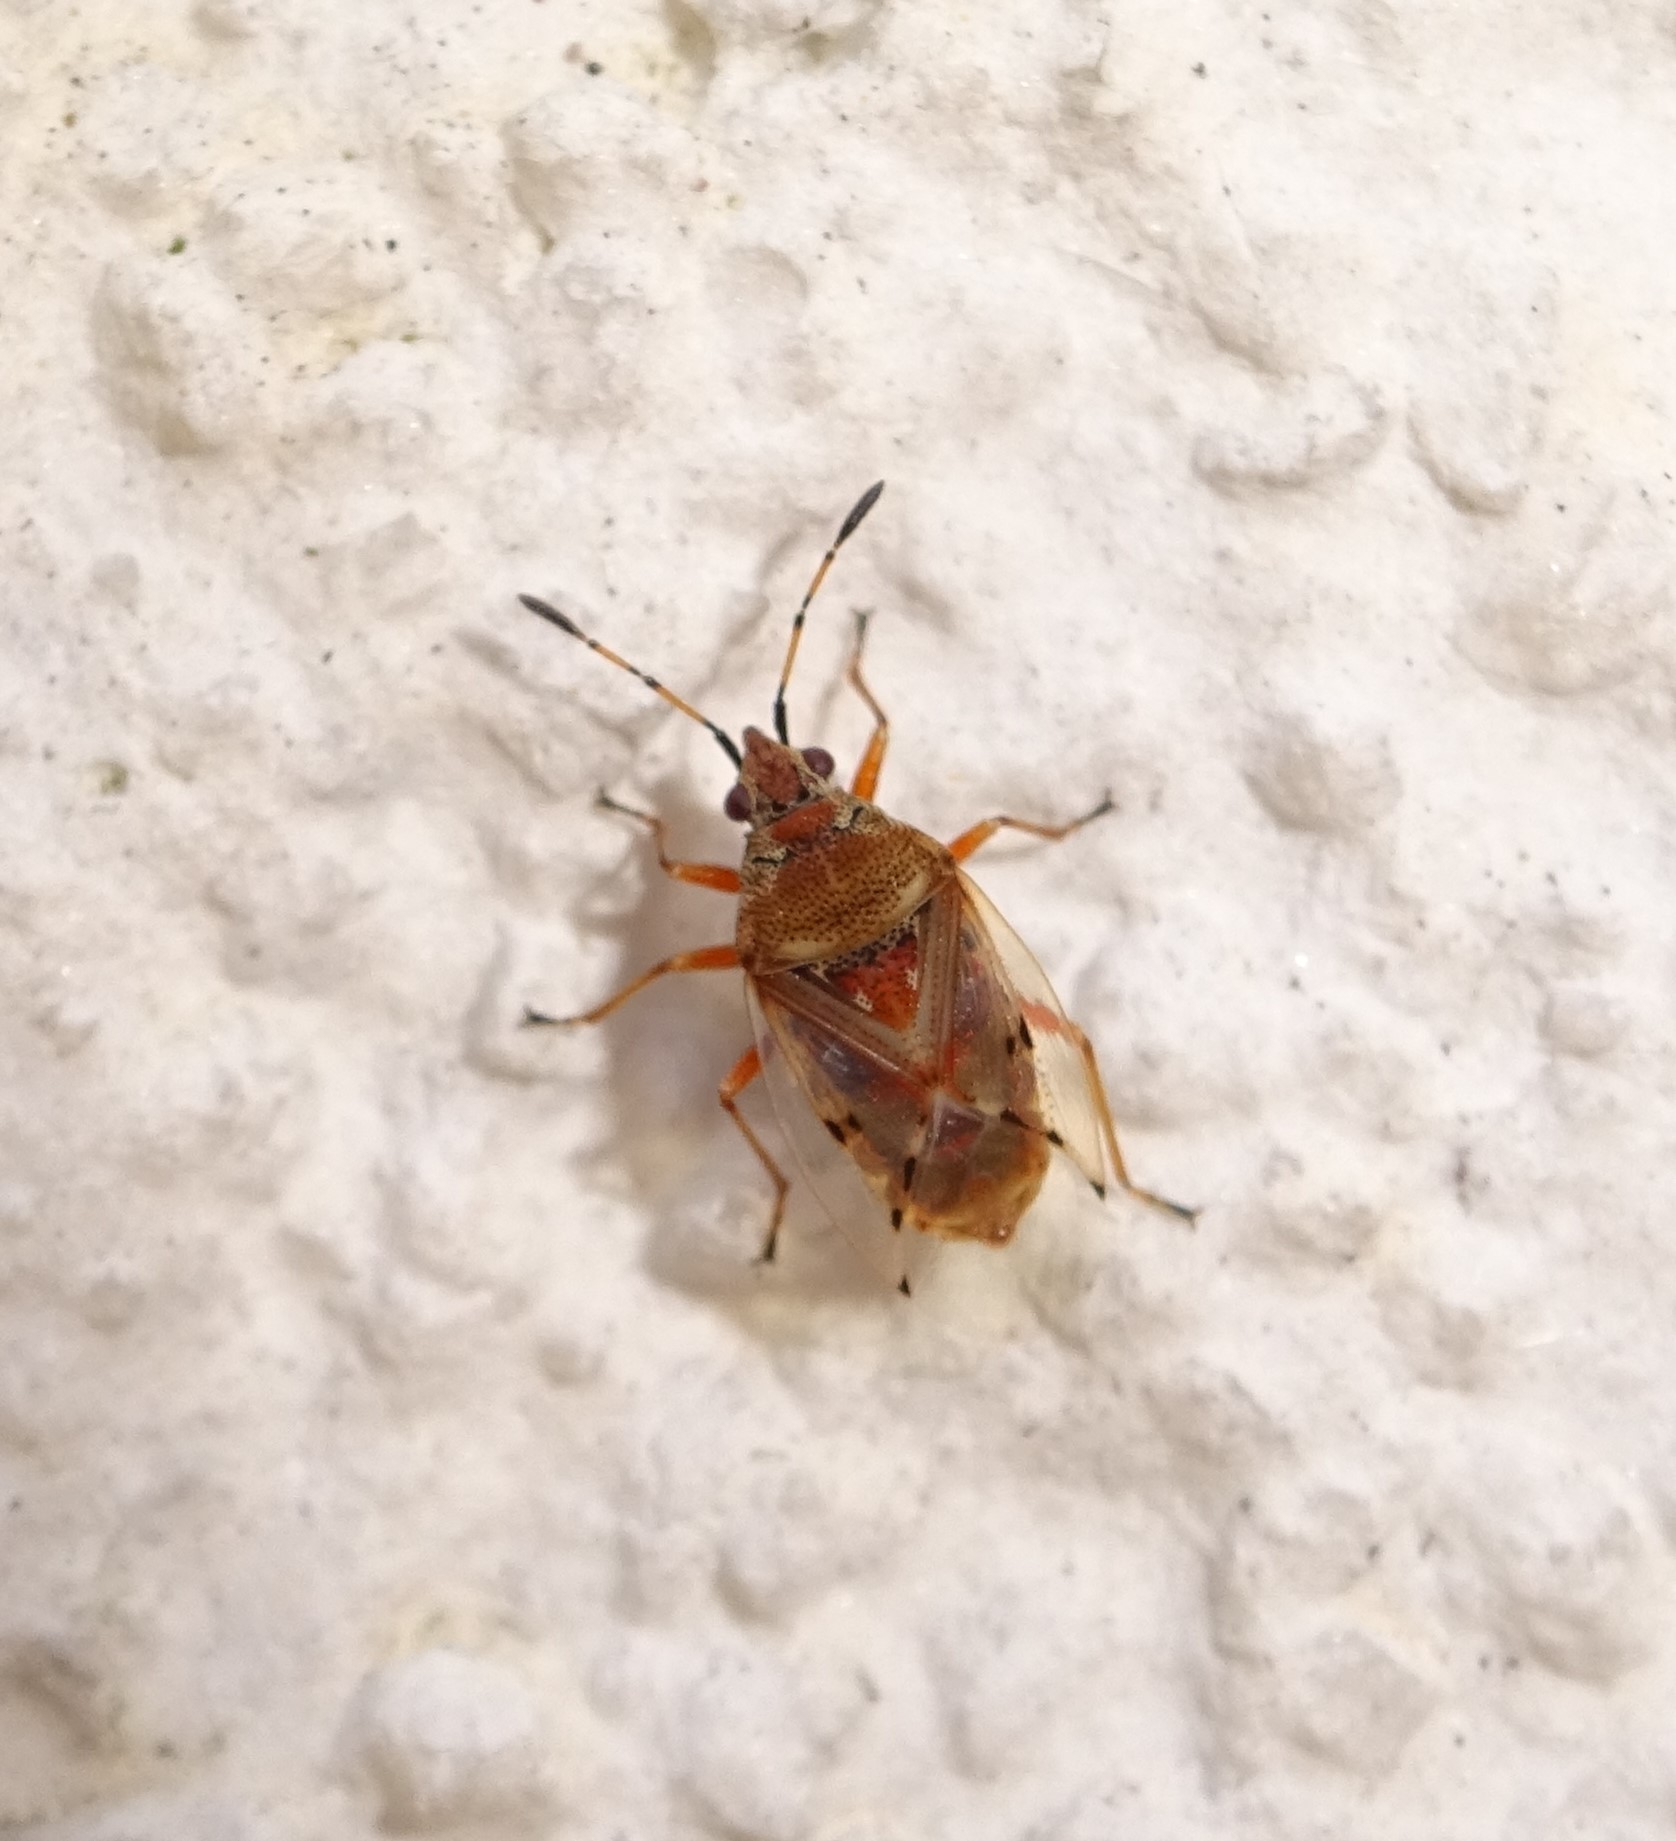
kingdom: Animalia
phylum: Arthropoda
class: Insecta
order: Hemiptera
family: Lygaeidae
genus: Kleidocerys
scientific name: Kleidocerys resedae
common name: Birch catkin bug
